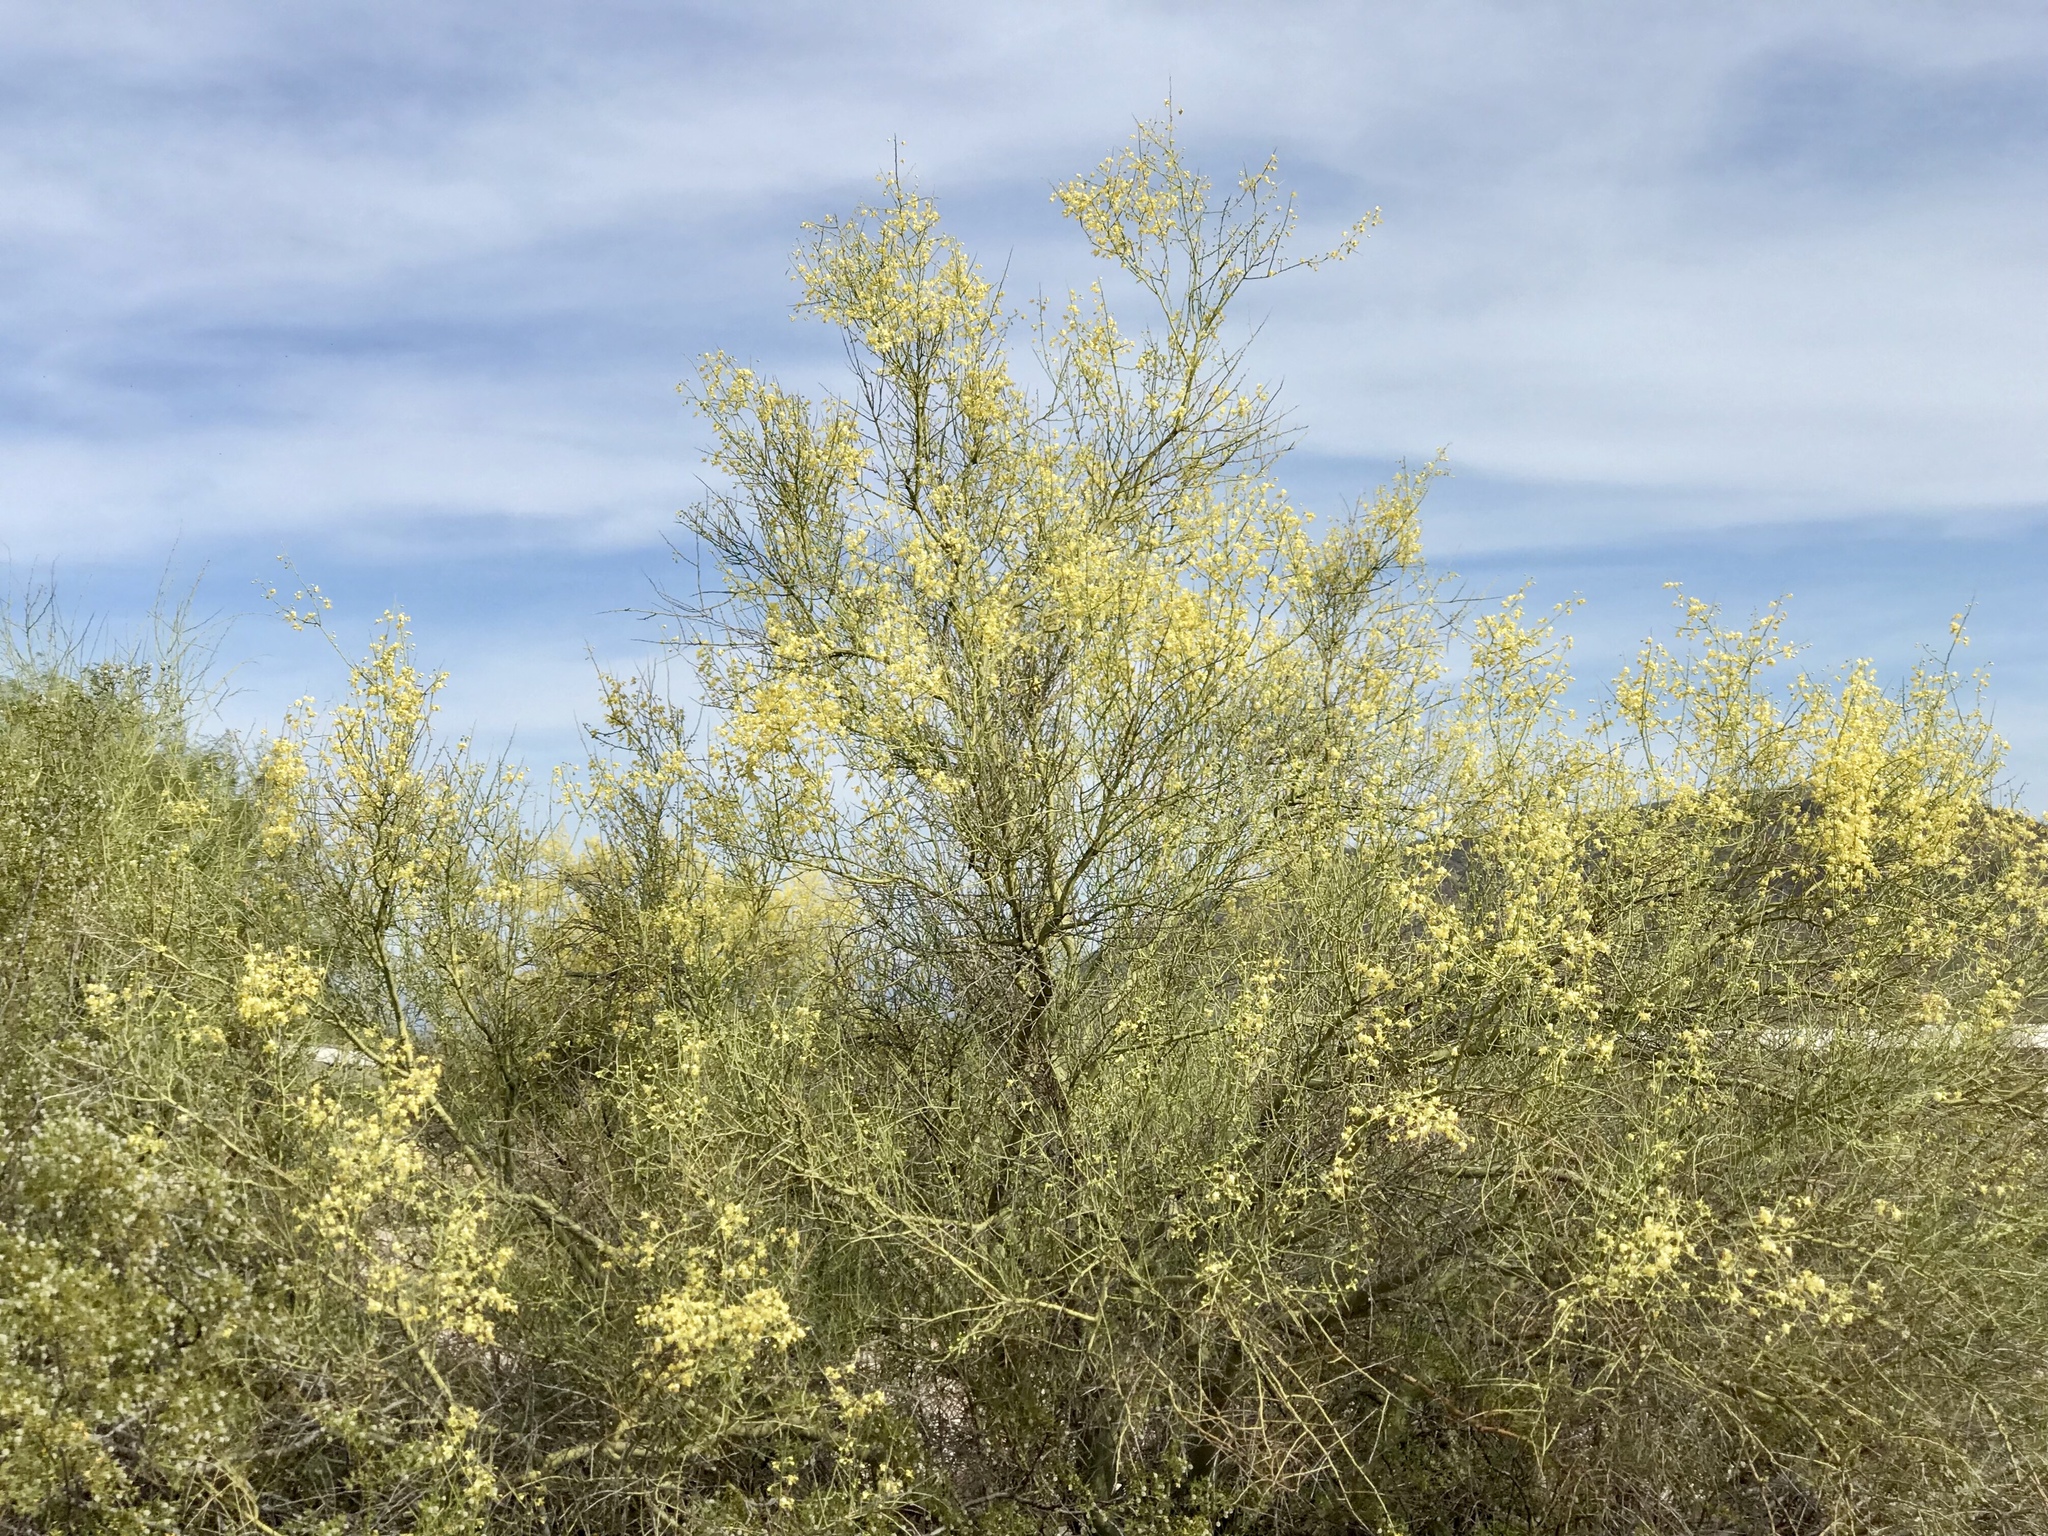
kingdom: Plantae
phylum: Tracheophyta
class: Magnoliopsida
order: Fabales
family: Fabaceae
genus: Parkinsonia
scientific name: Parkinsonia microphylla
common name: Yellow paloverde
